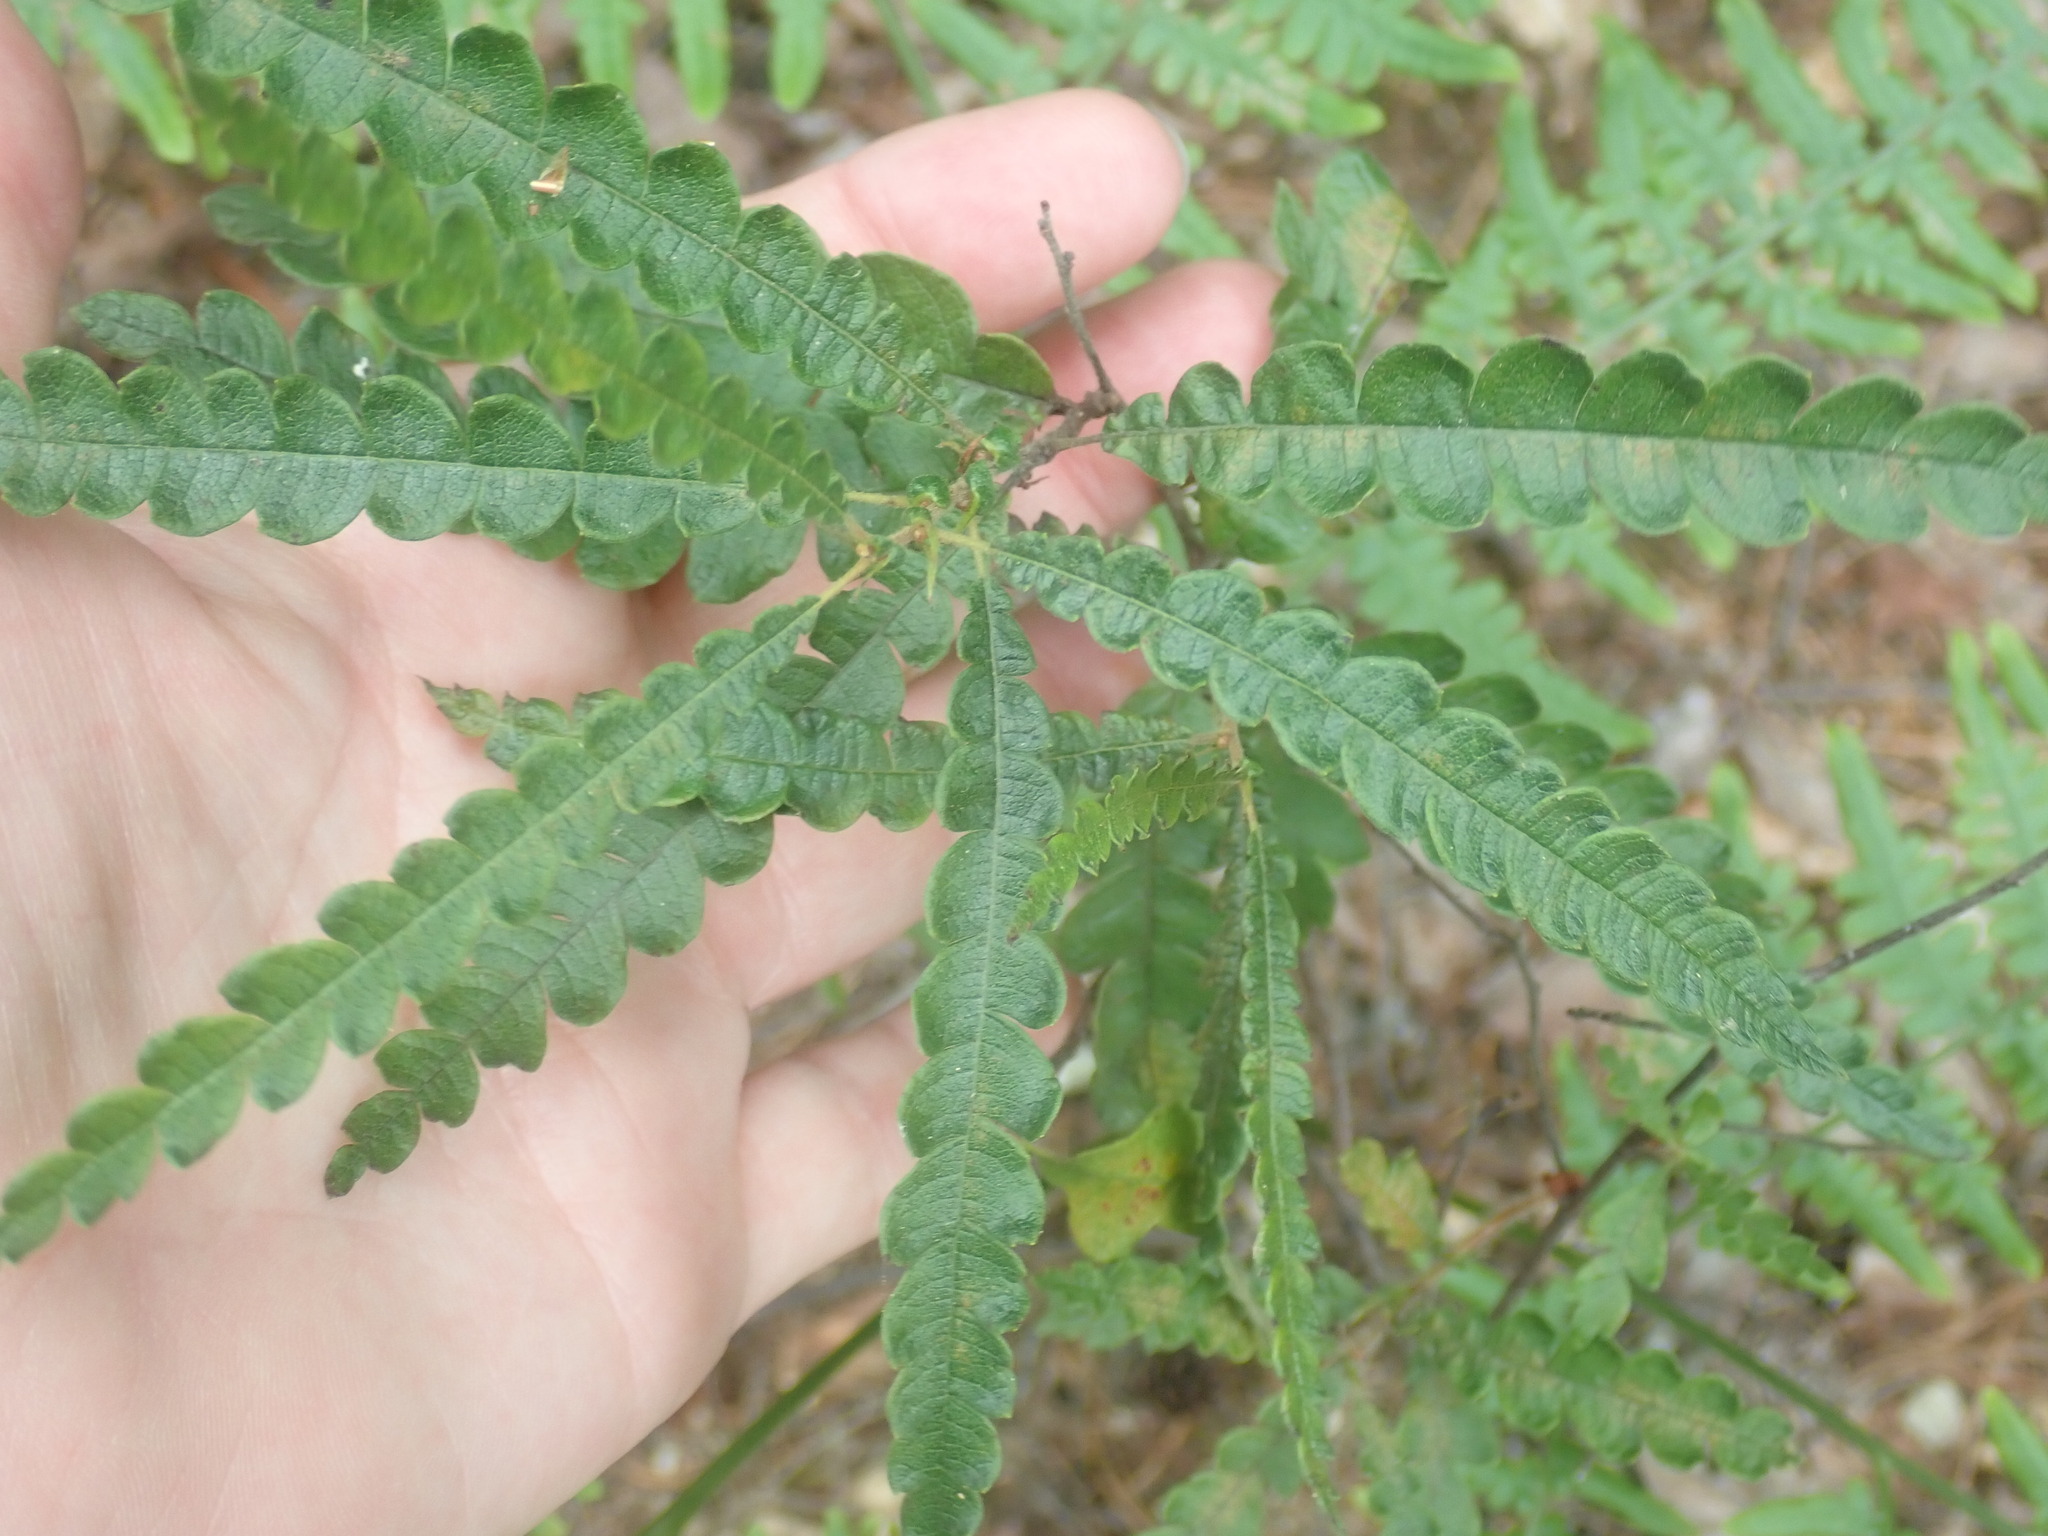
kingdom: Plantae
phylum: Tracheophyta
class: Magnoliopsida
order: Fagales
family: Myricaceae
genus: Comptonia
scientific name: Comptonia peregrina
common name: Sweet-fern
